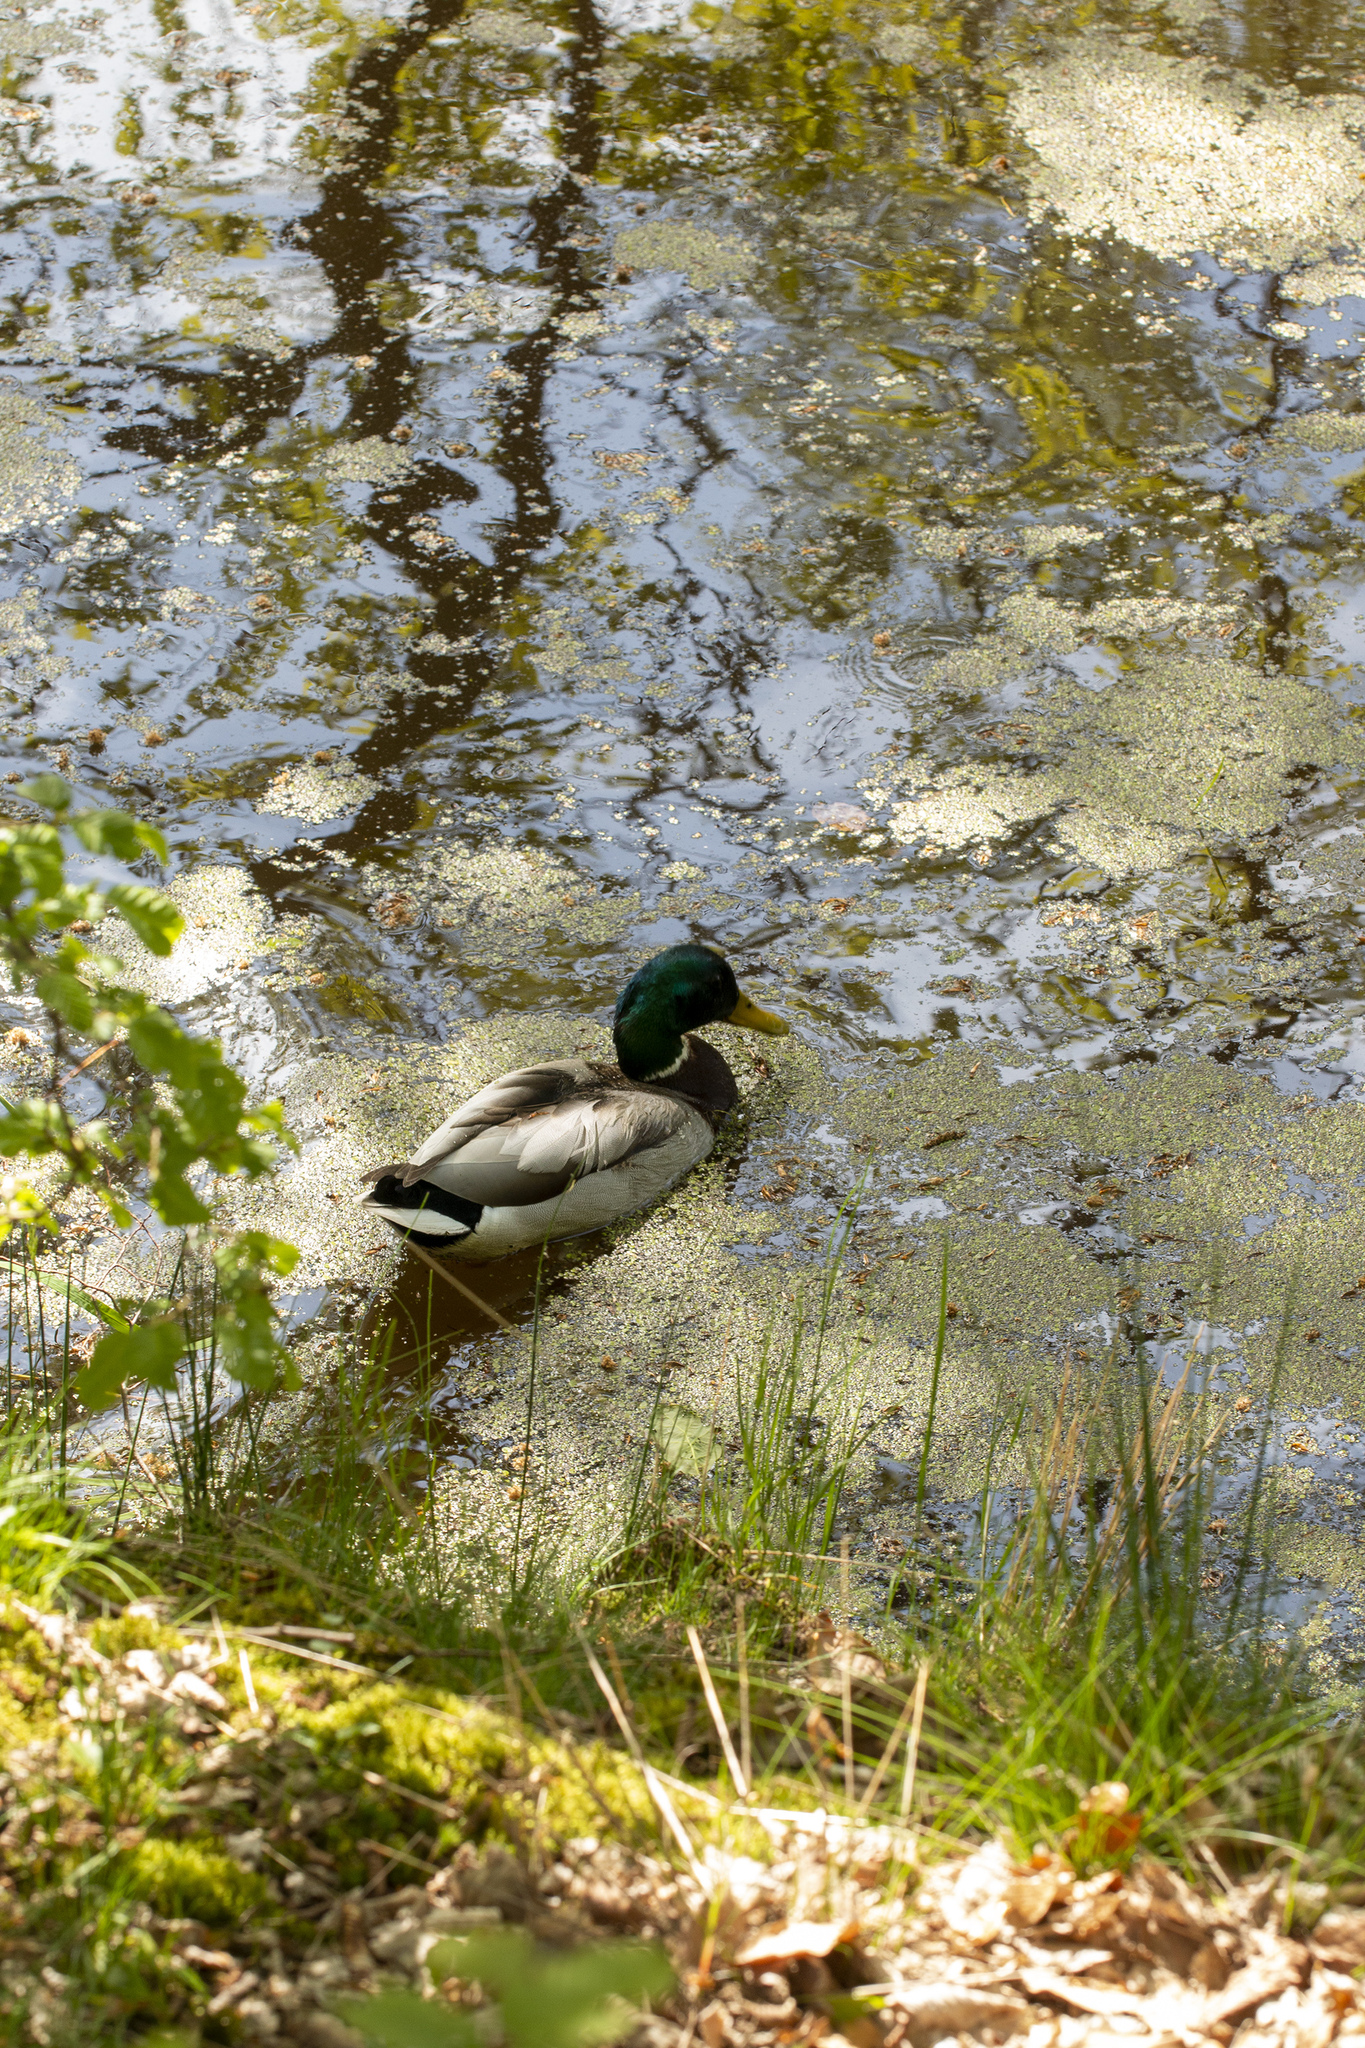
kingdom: Animalia
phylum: Chordata
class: Aves
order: Anseriformes
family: Anatidae
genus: Anas
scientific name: Anas platyrhynchos
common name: Mallard
